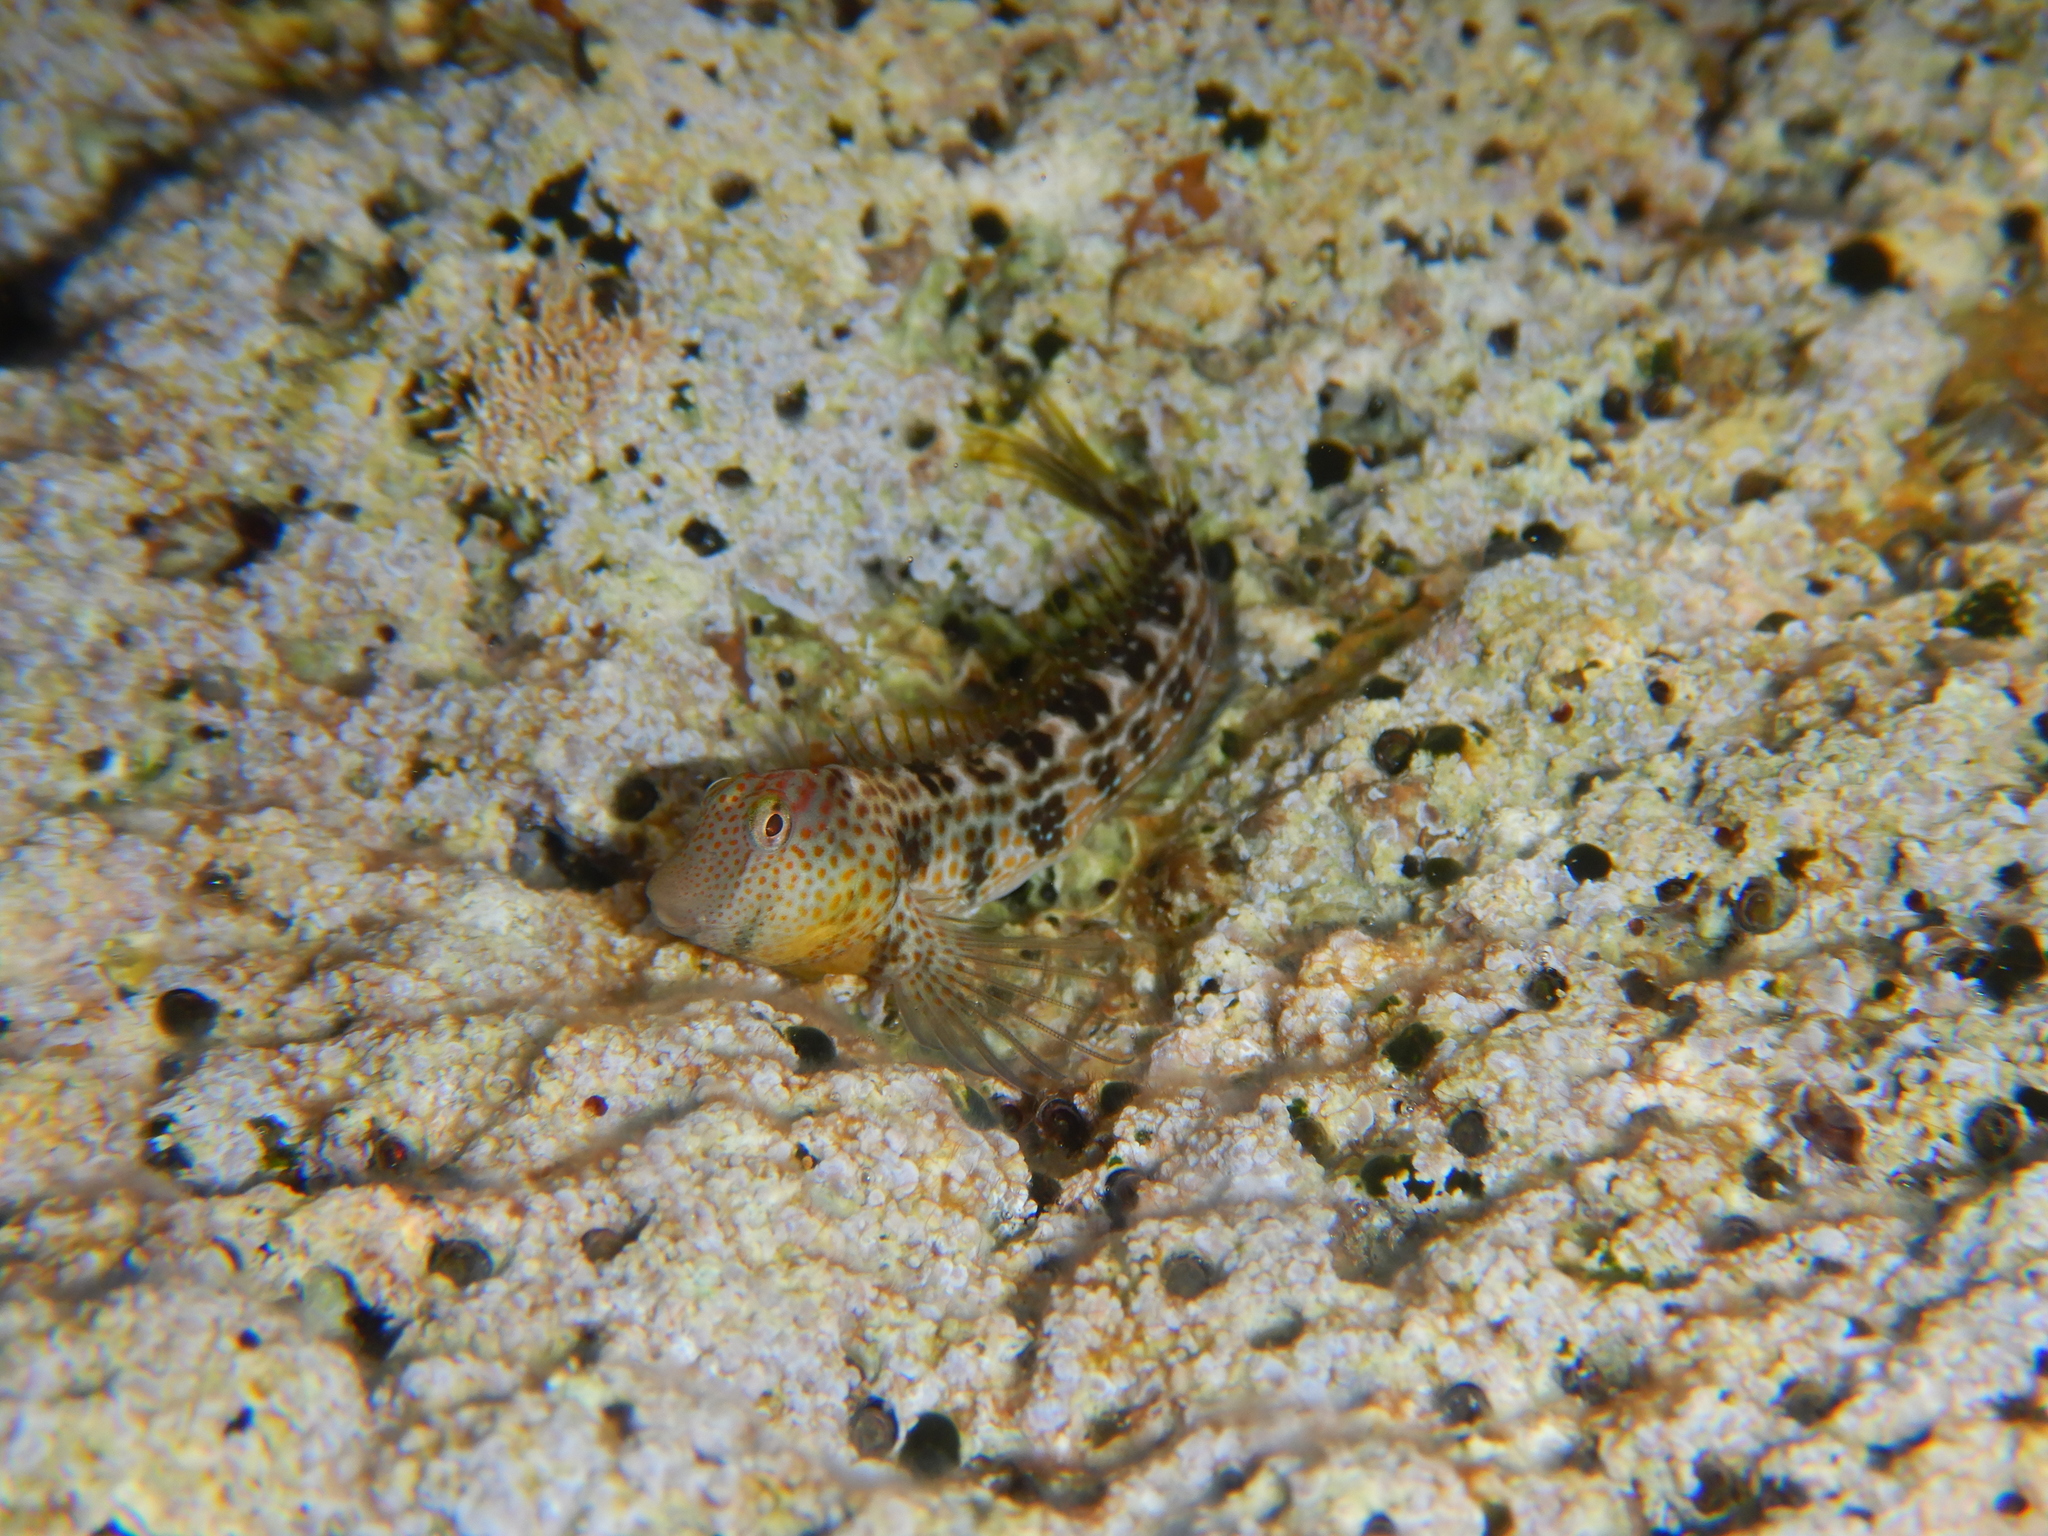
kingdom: Animalia
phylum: Chordata
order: Perciformes
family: Blenniidae
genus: Microlipophrys
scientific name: Microlipophrys canevae
